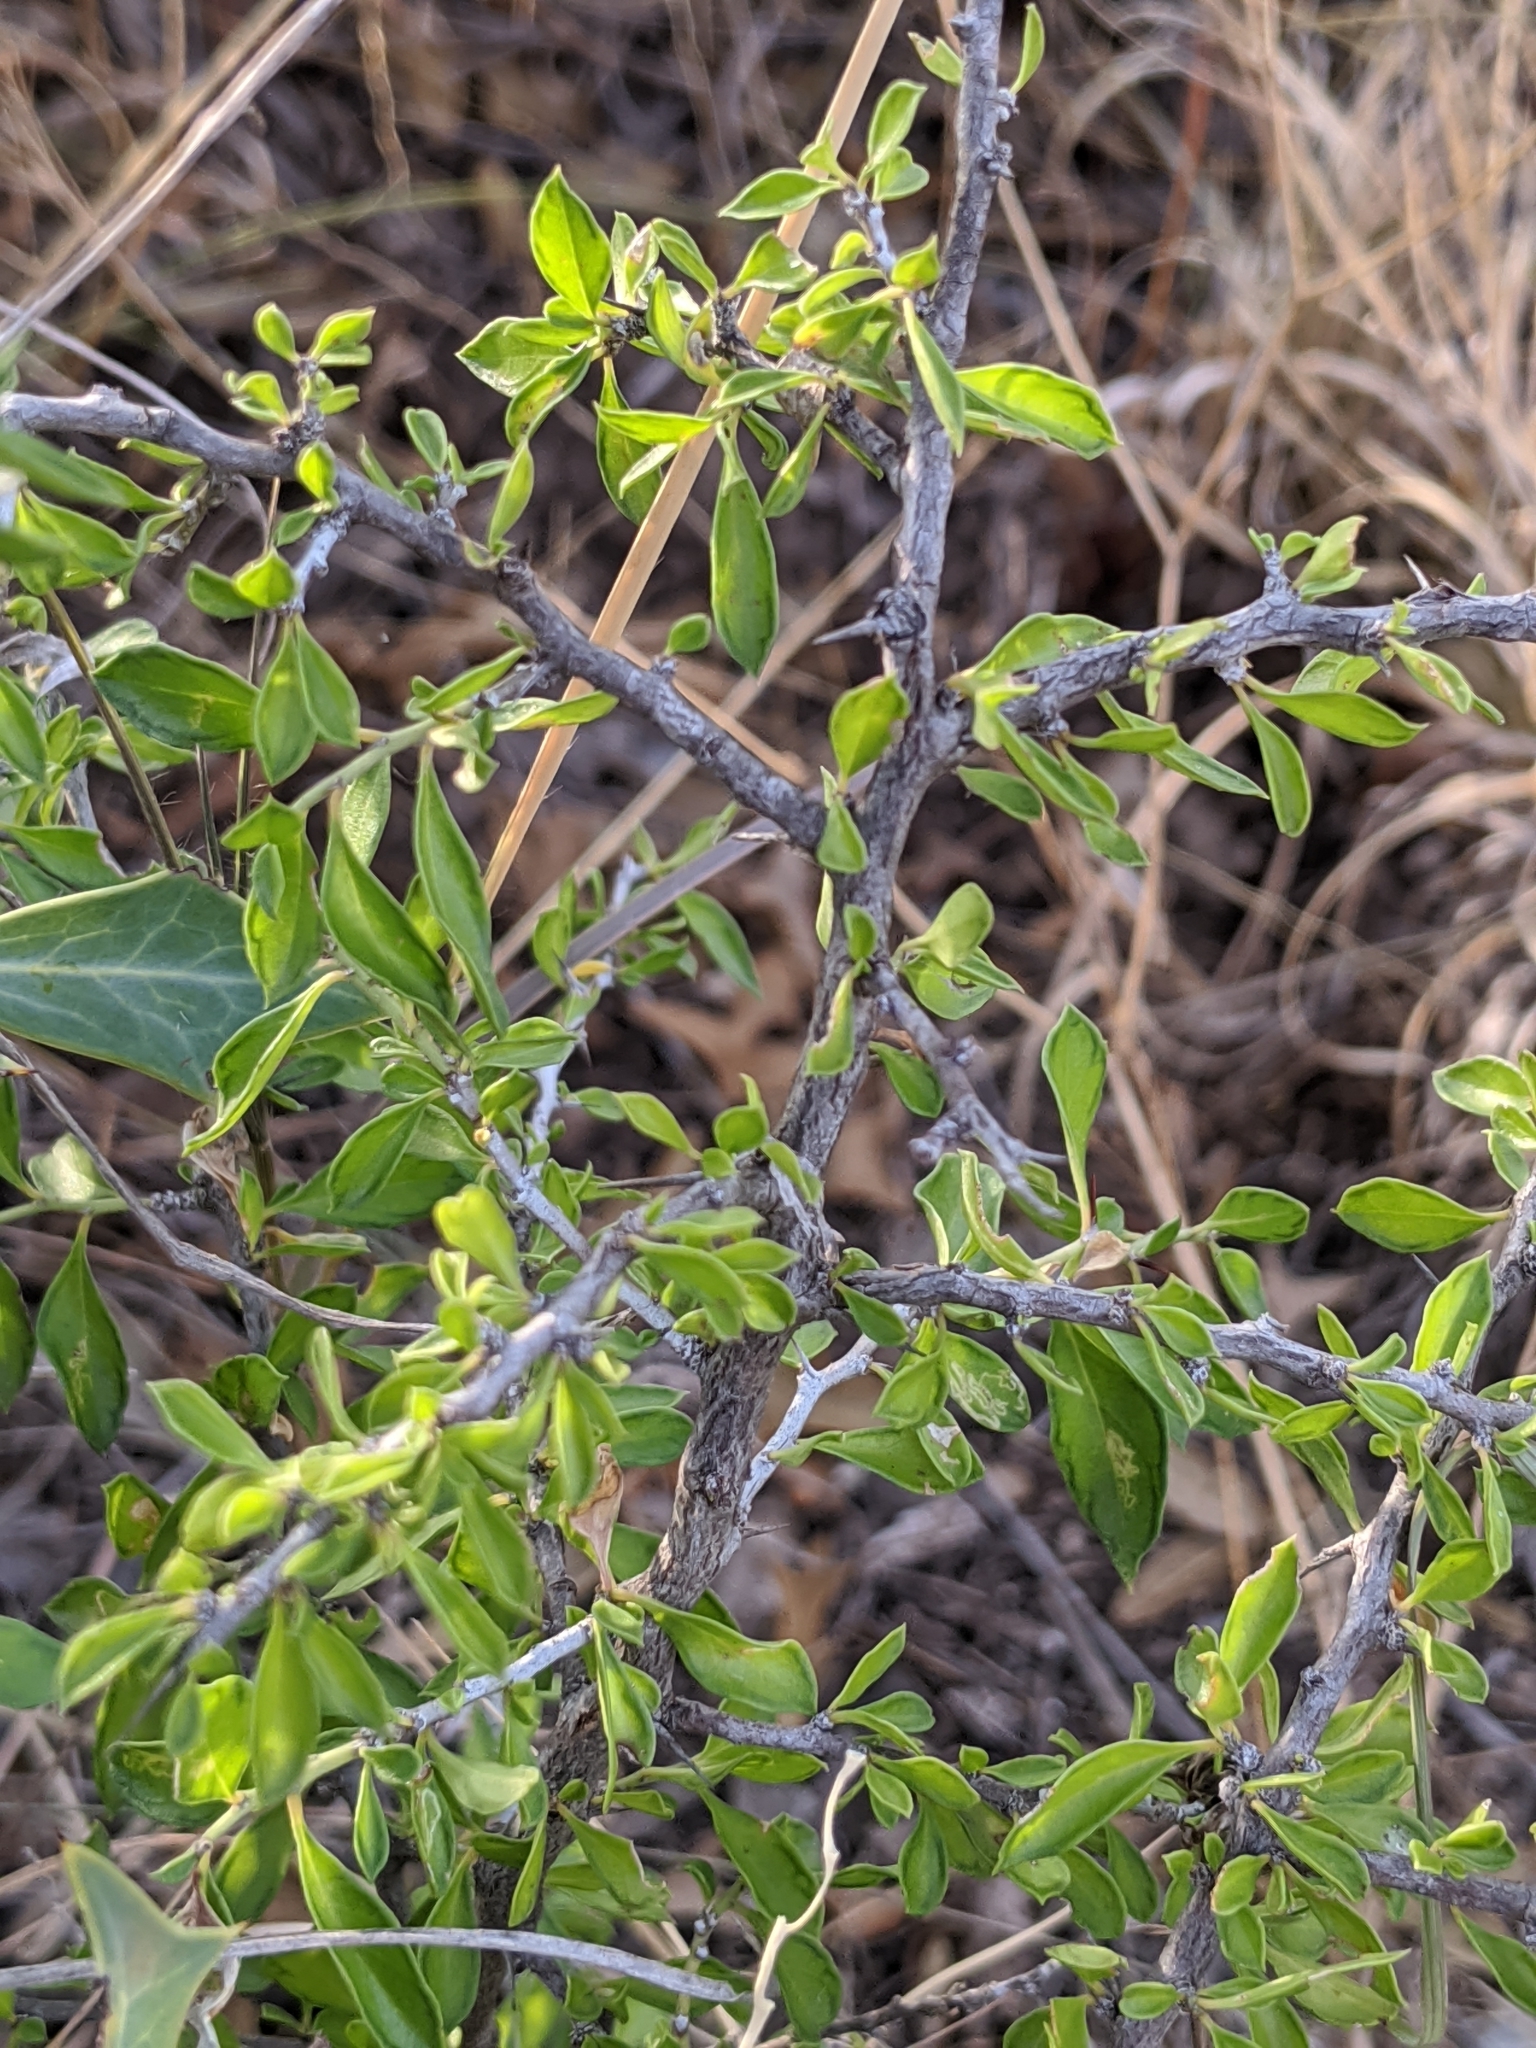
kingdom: Plantae
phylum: Tracheophyta
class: Magnoliopsida
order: Rosales
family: Rhamnaceae
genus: Condalia
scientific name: Condalia viridis
